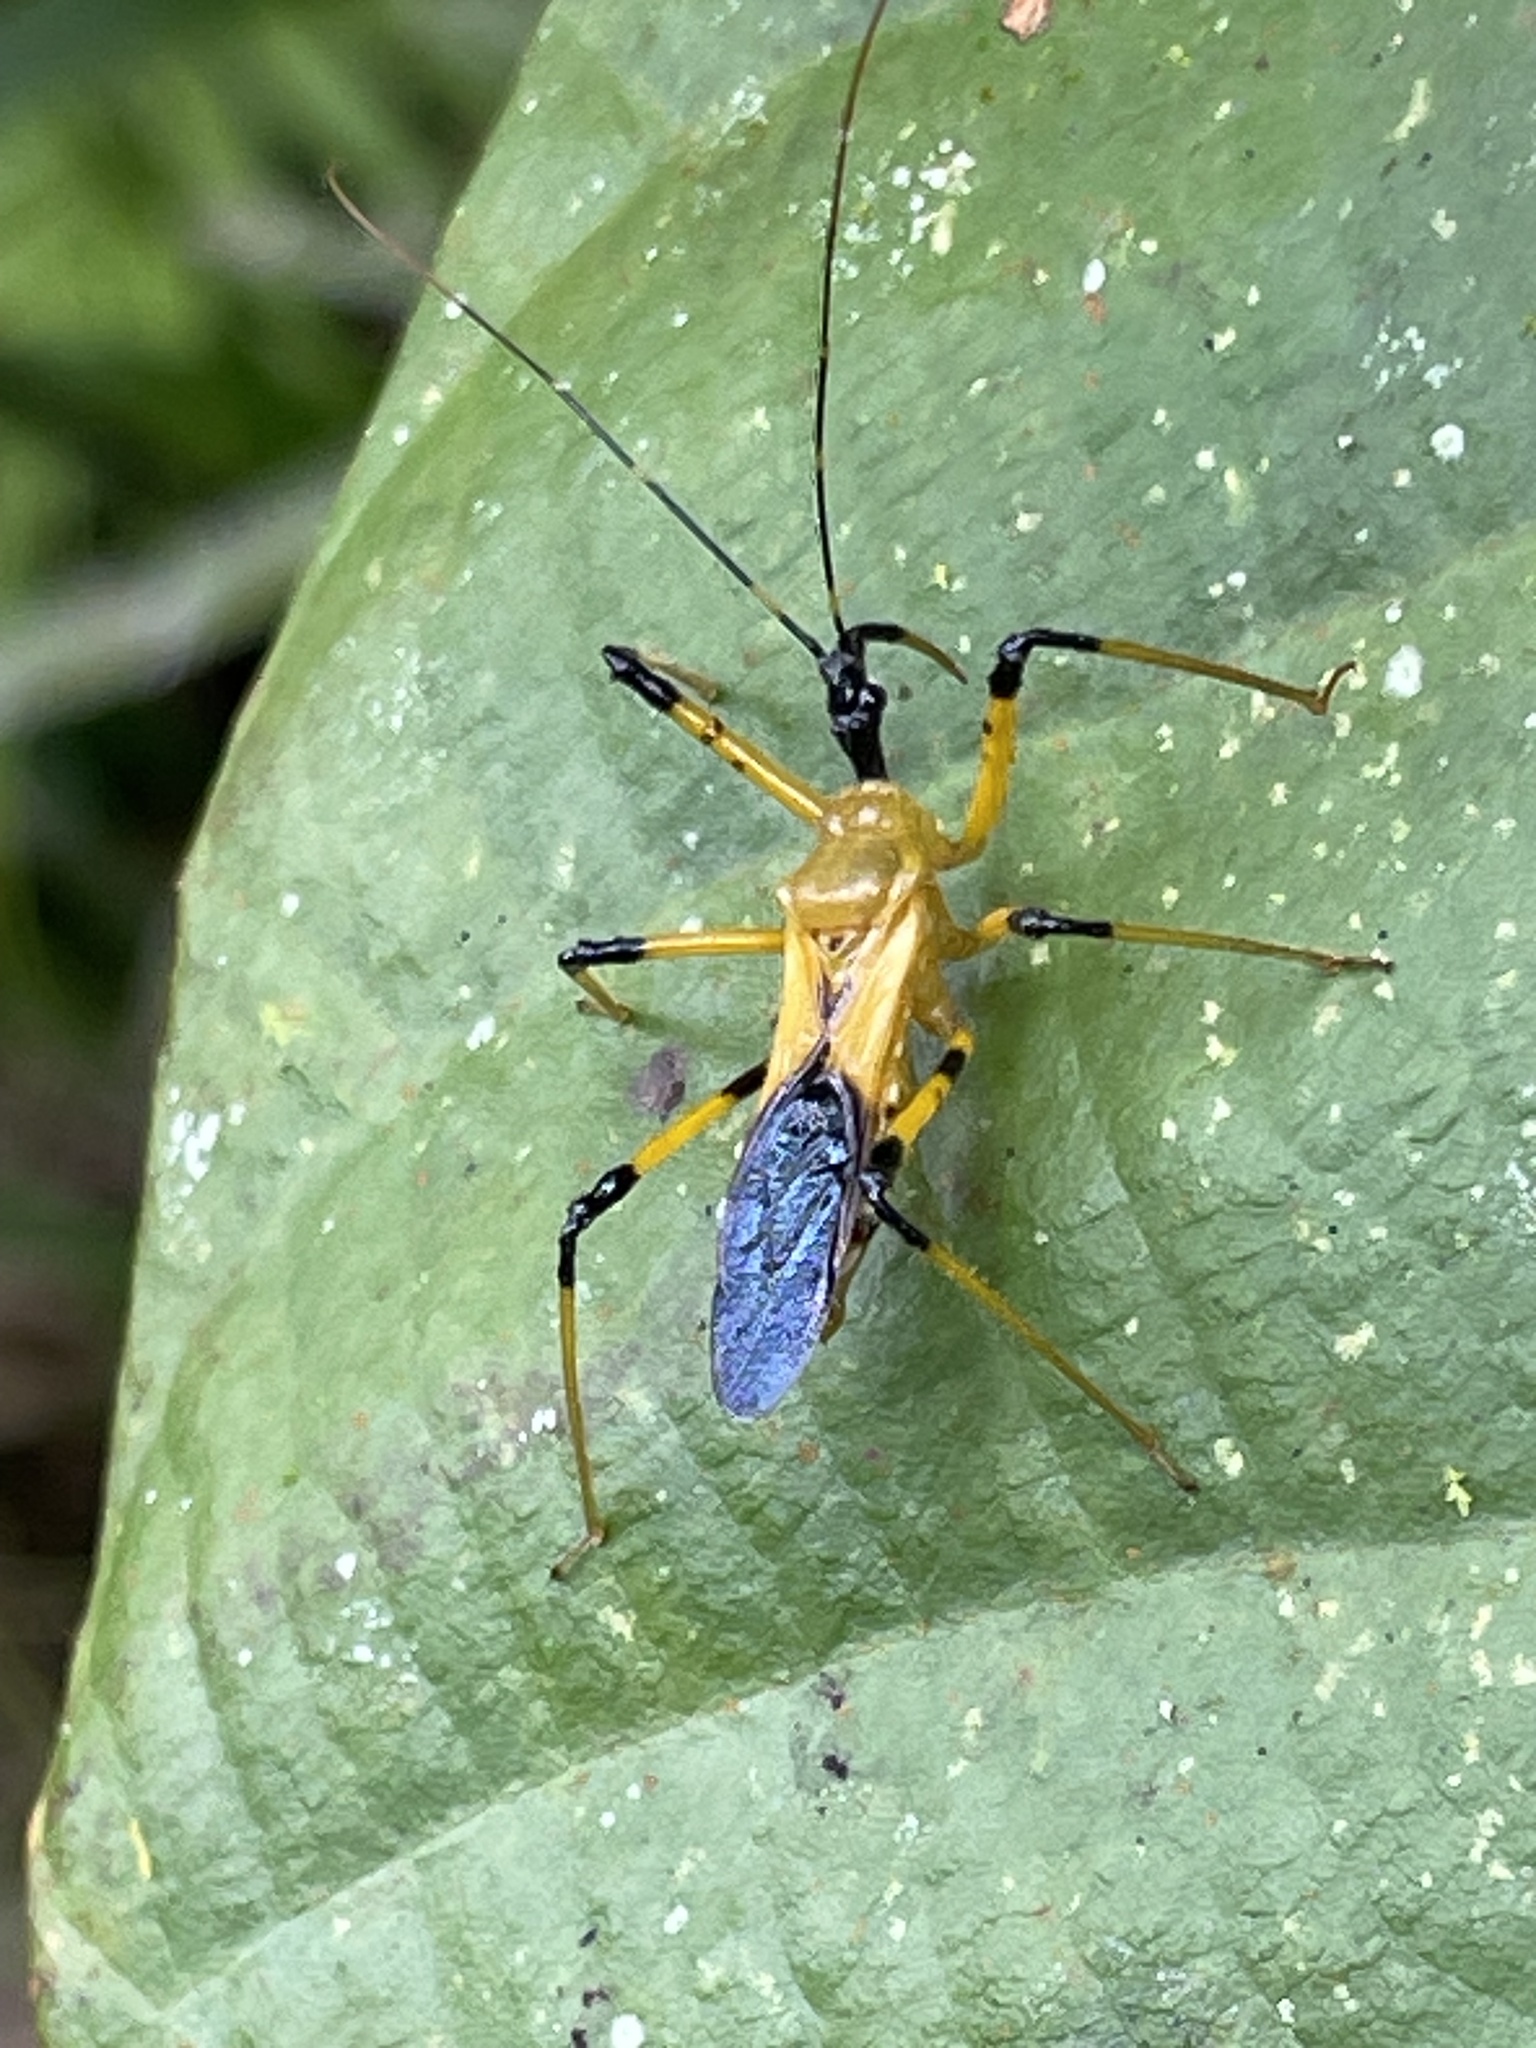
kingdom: Animalia
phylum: Arthropoda
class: Insecta
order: Hemiptera
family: Reduviidae
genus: Velinus
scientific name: Velinus nigrigenu
